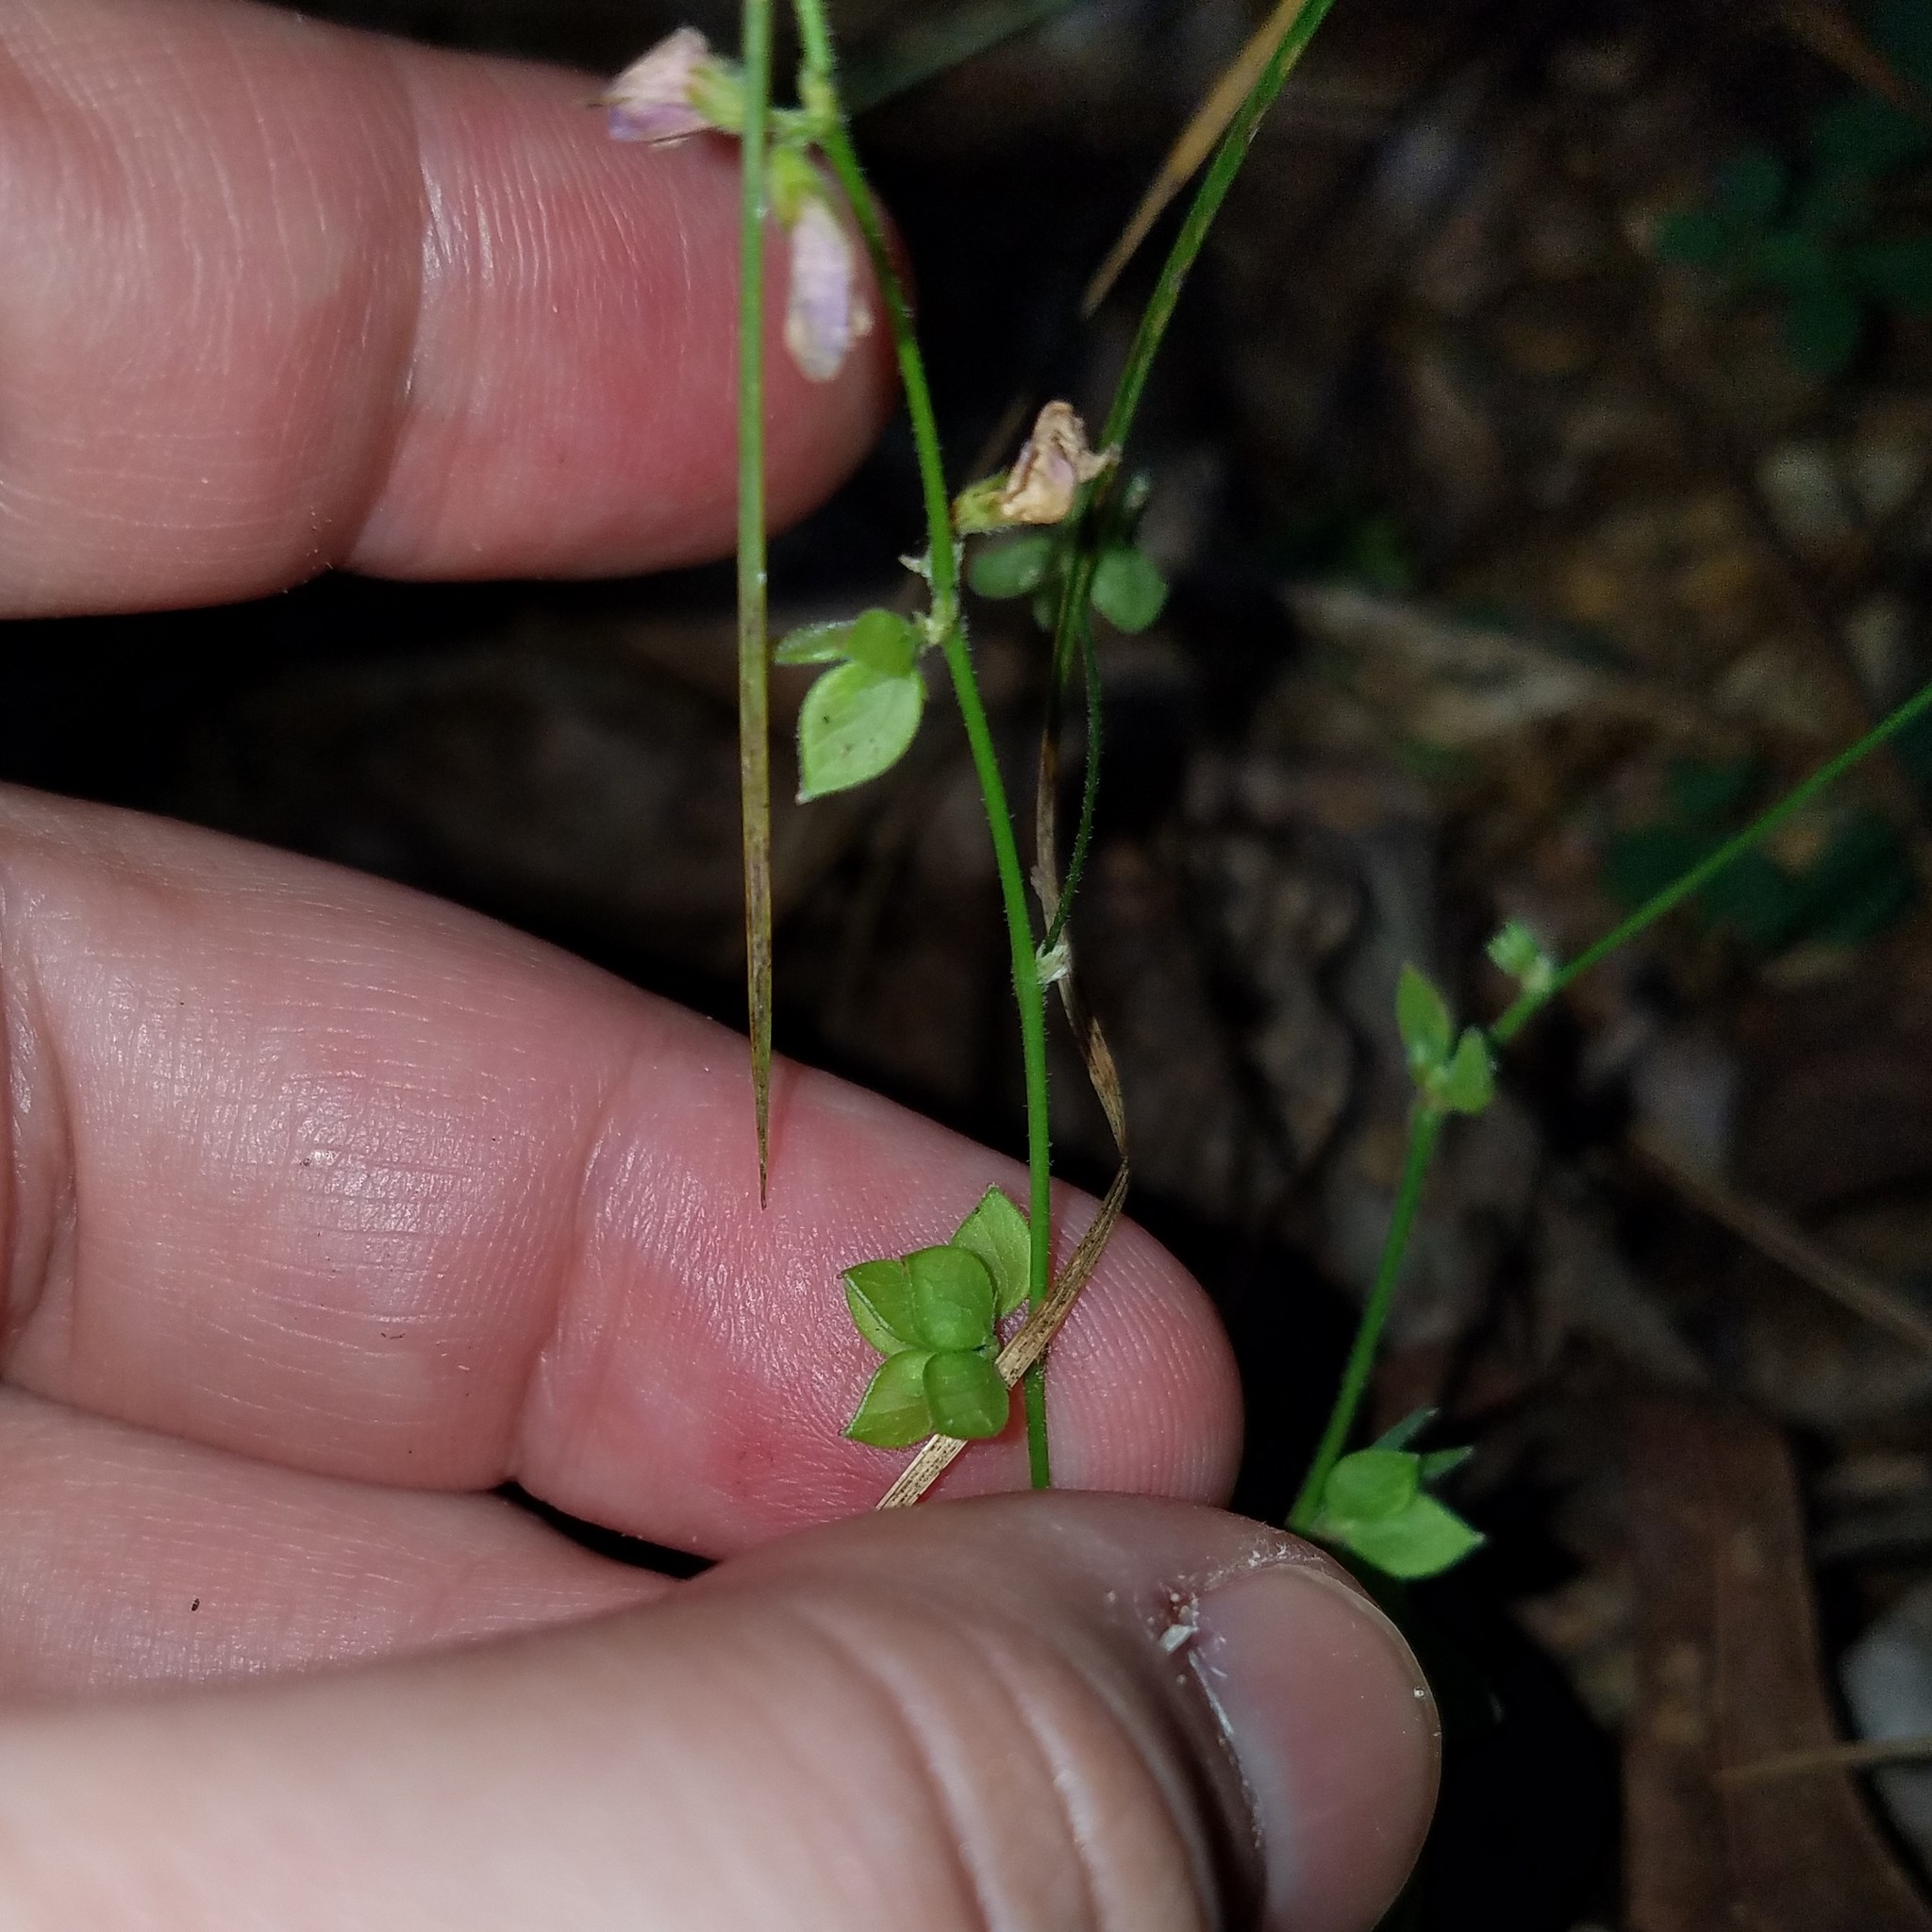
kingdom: Plantae
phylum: Tracheophyta
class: Magnoliopsida
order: Fabales
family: Fabaceae
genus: Lespedeza
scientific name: Lespedeza procumbens
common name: Downy trailing bush-clover
